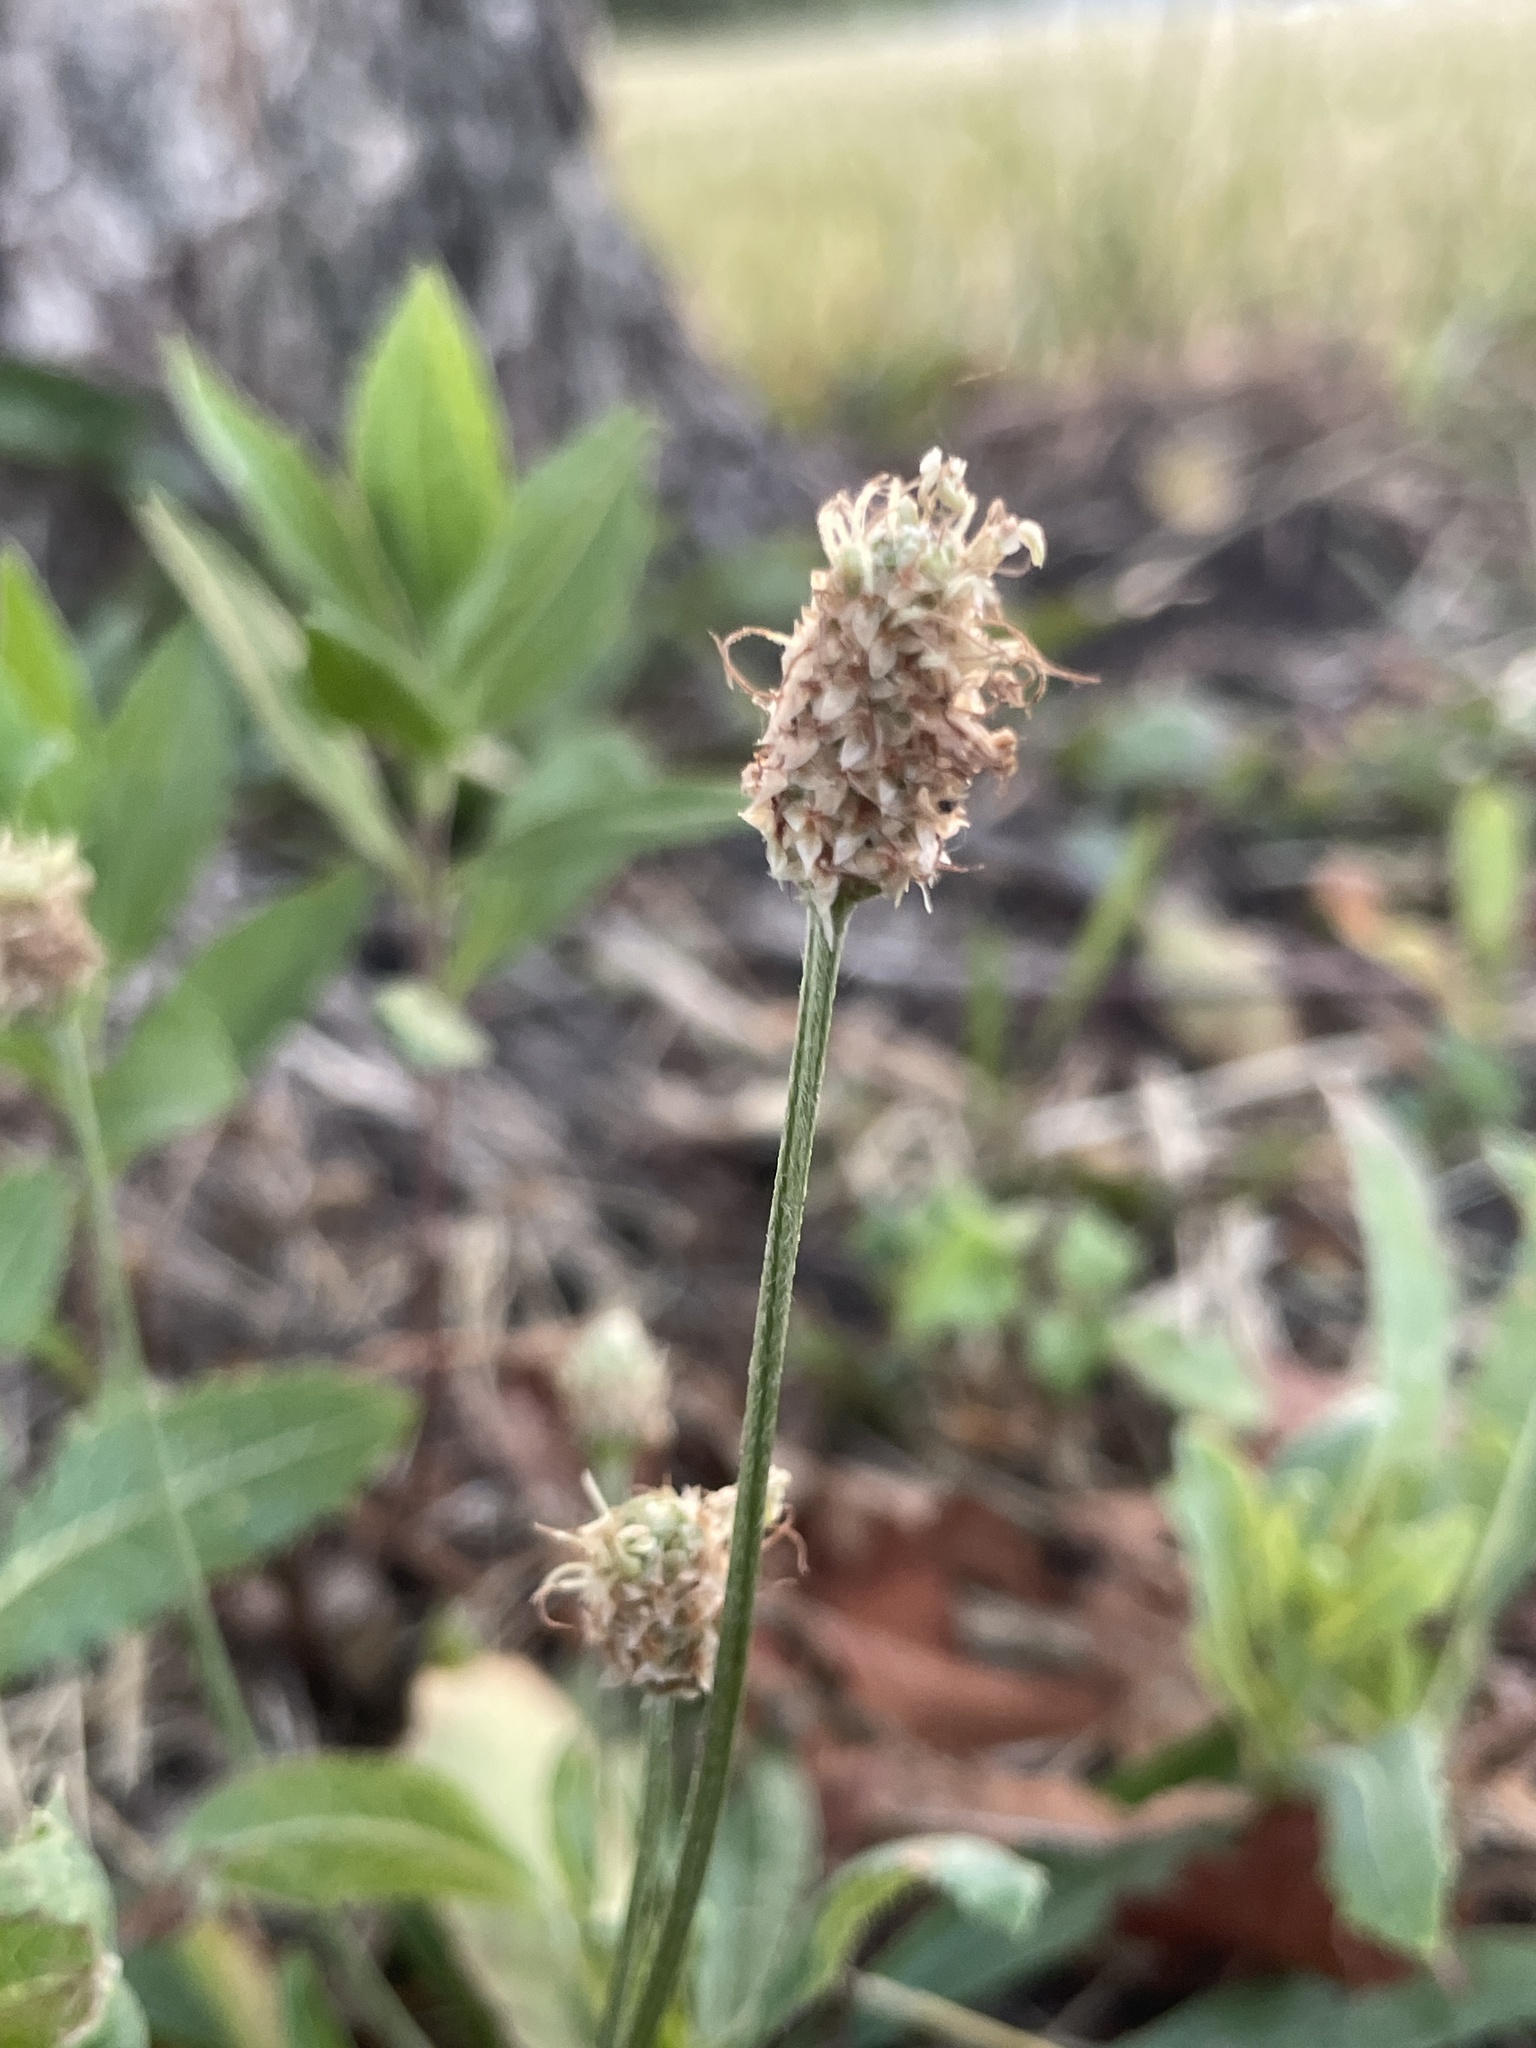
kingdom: Plantae
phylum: Tracheophyta
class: Magnoliopsida
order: Lamiales
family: Plantaginaceae
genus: Plantago
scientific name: Plantago lanceolata
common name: Ribwort plantain
